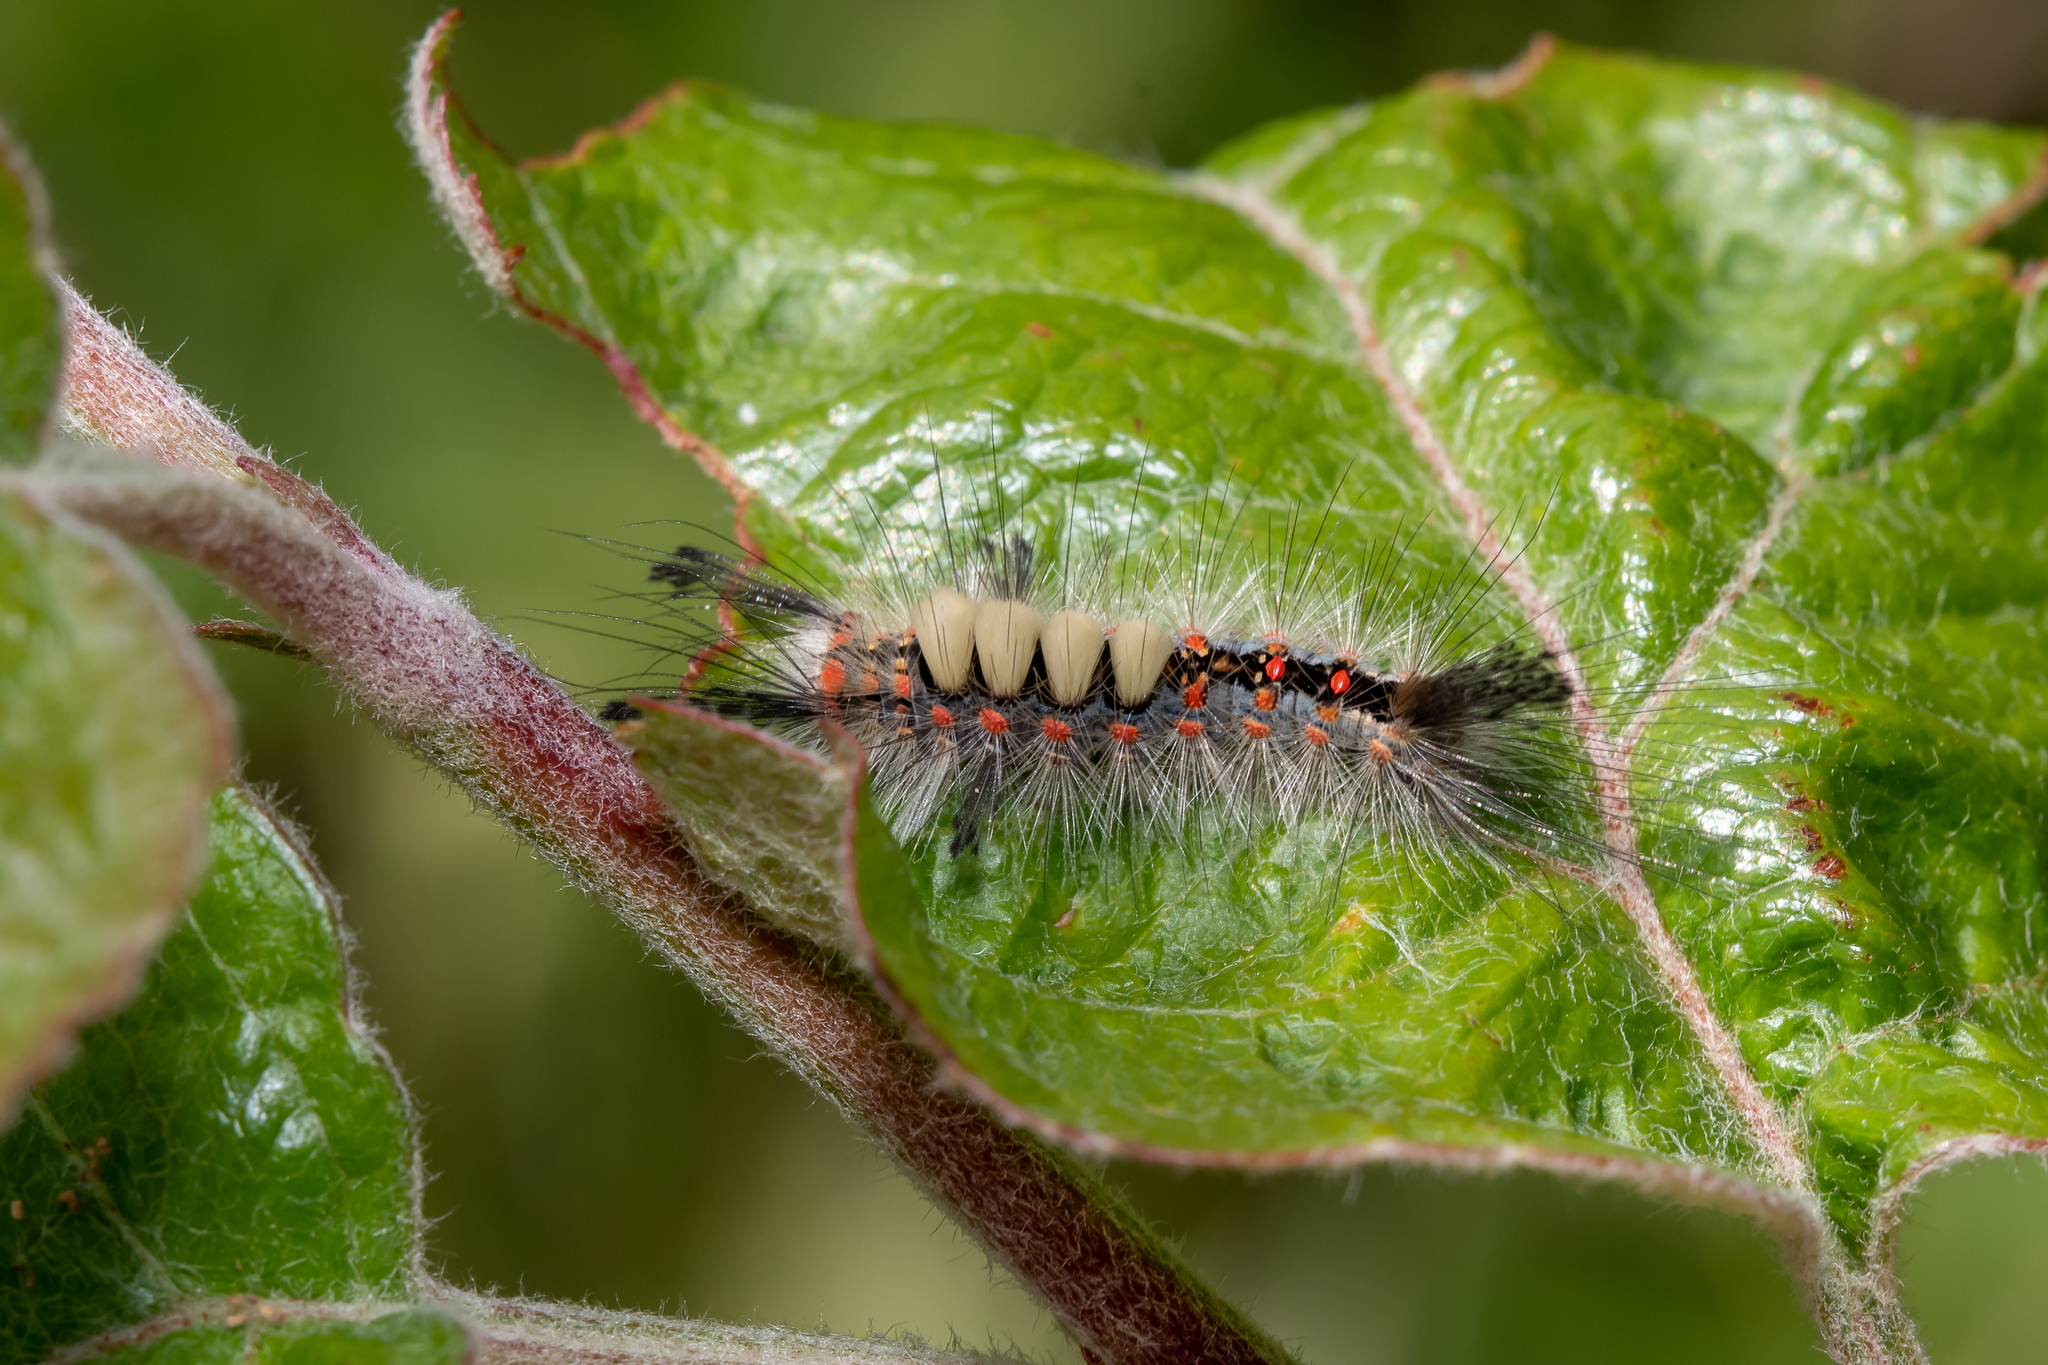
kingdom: Animalia
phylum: Arthropoda
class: Insecta
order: Lepidoptera
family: Erebidae
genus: Orgyia
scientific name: Orgyia antiqua
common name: Vapourer
